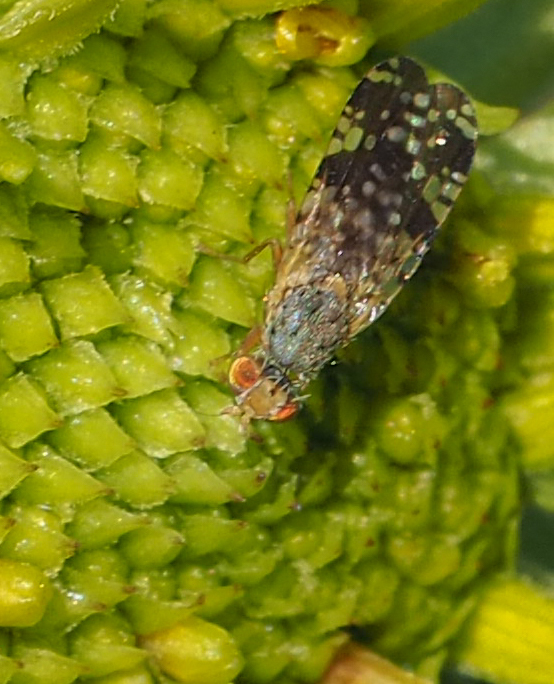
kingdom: Animalia
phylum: Arthropoda
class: Insecta
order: Diptera
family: Tephritidae
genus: Neotephritis
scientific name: Neotephritis finalis
